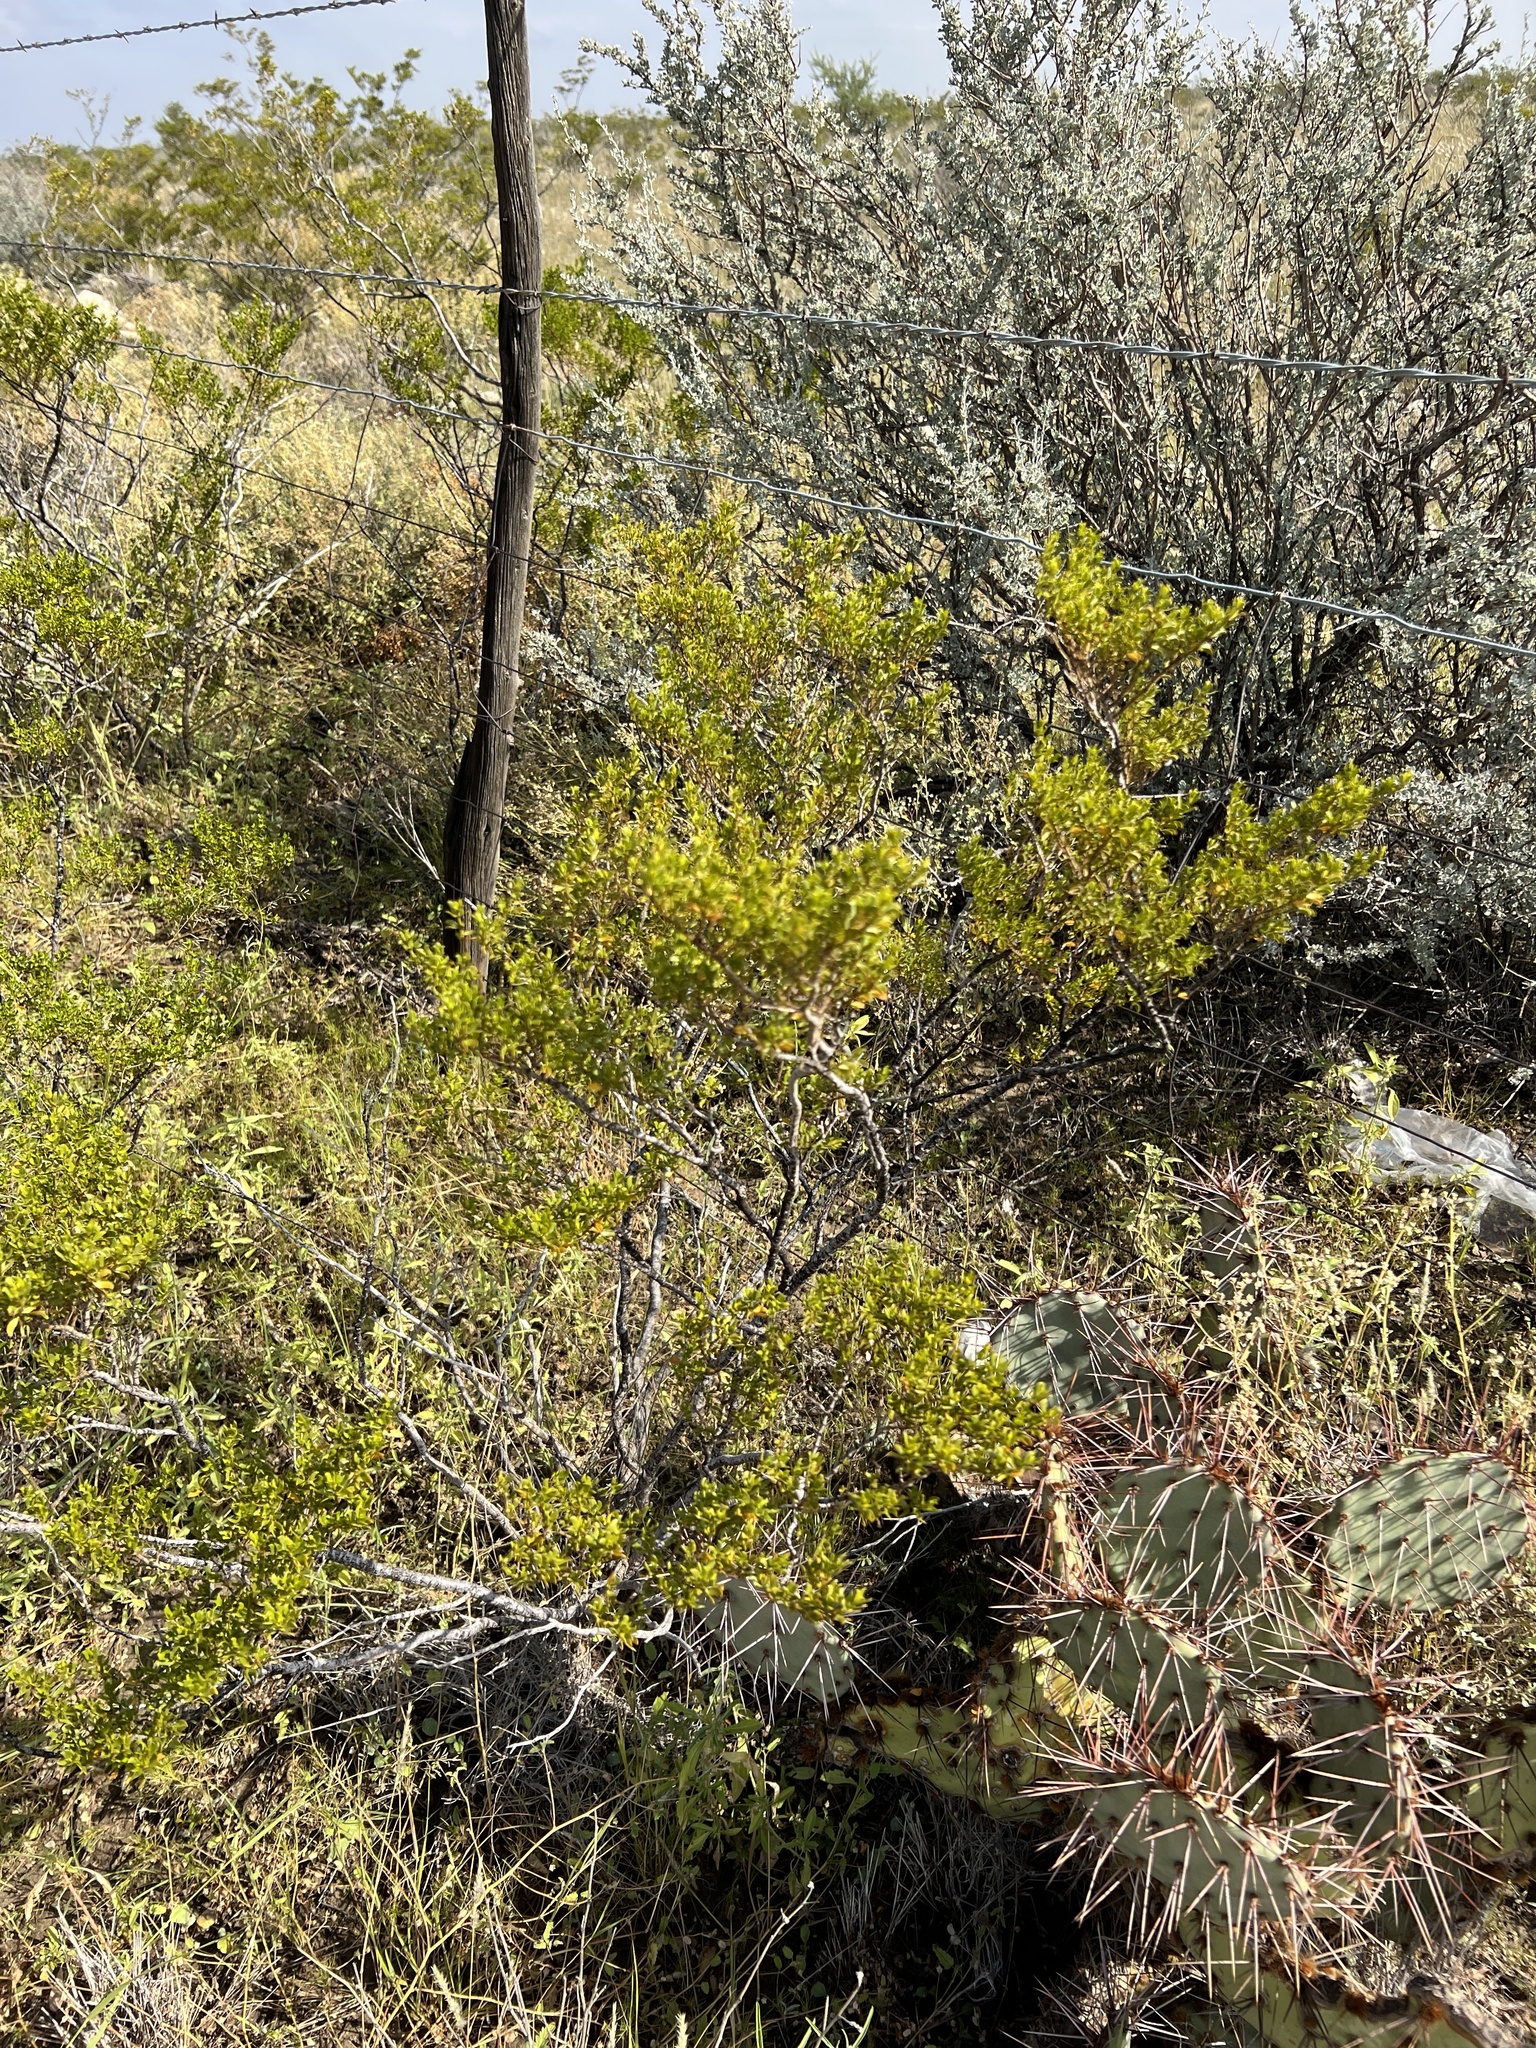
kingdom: Plantae
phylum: Tracheophyta
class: Magnoliopsida
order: Zygophyllales
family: Zygophyllaceae
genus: Larrea
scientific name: Larrea tridentata
